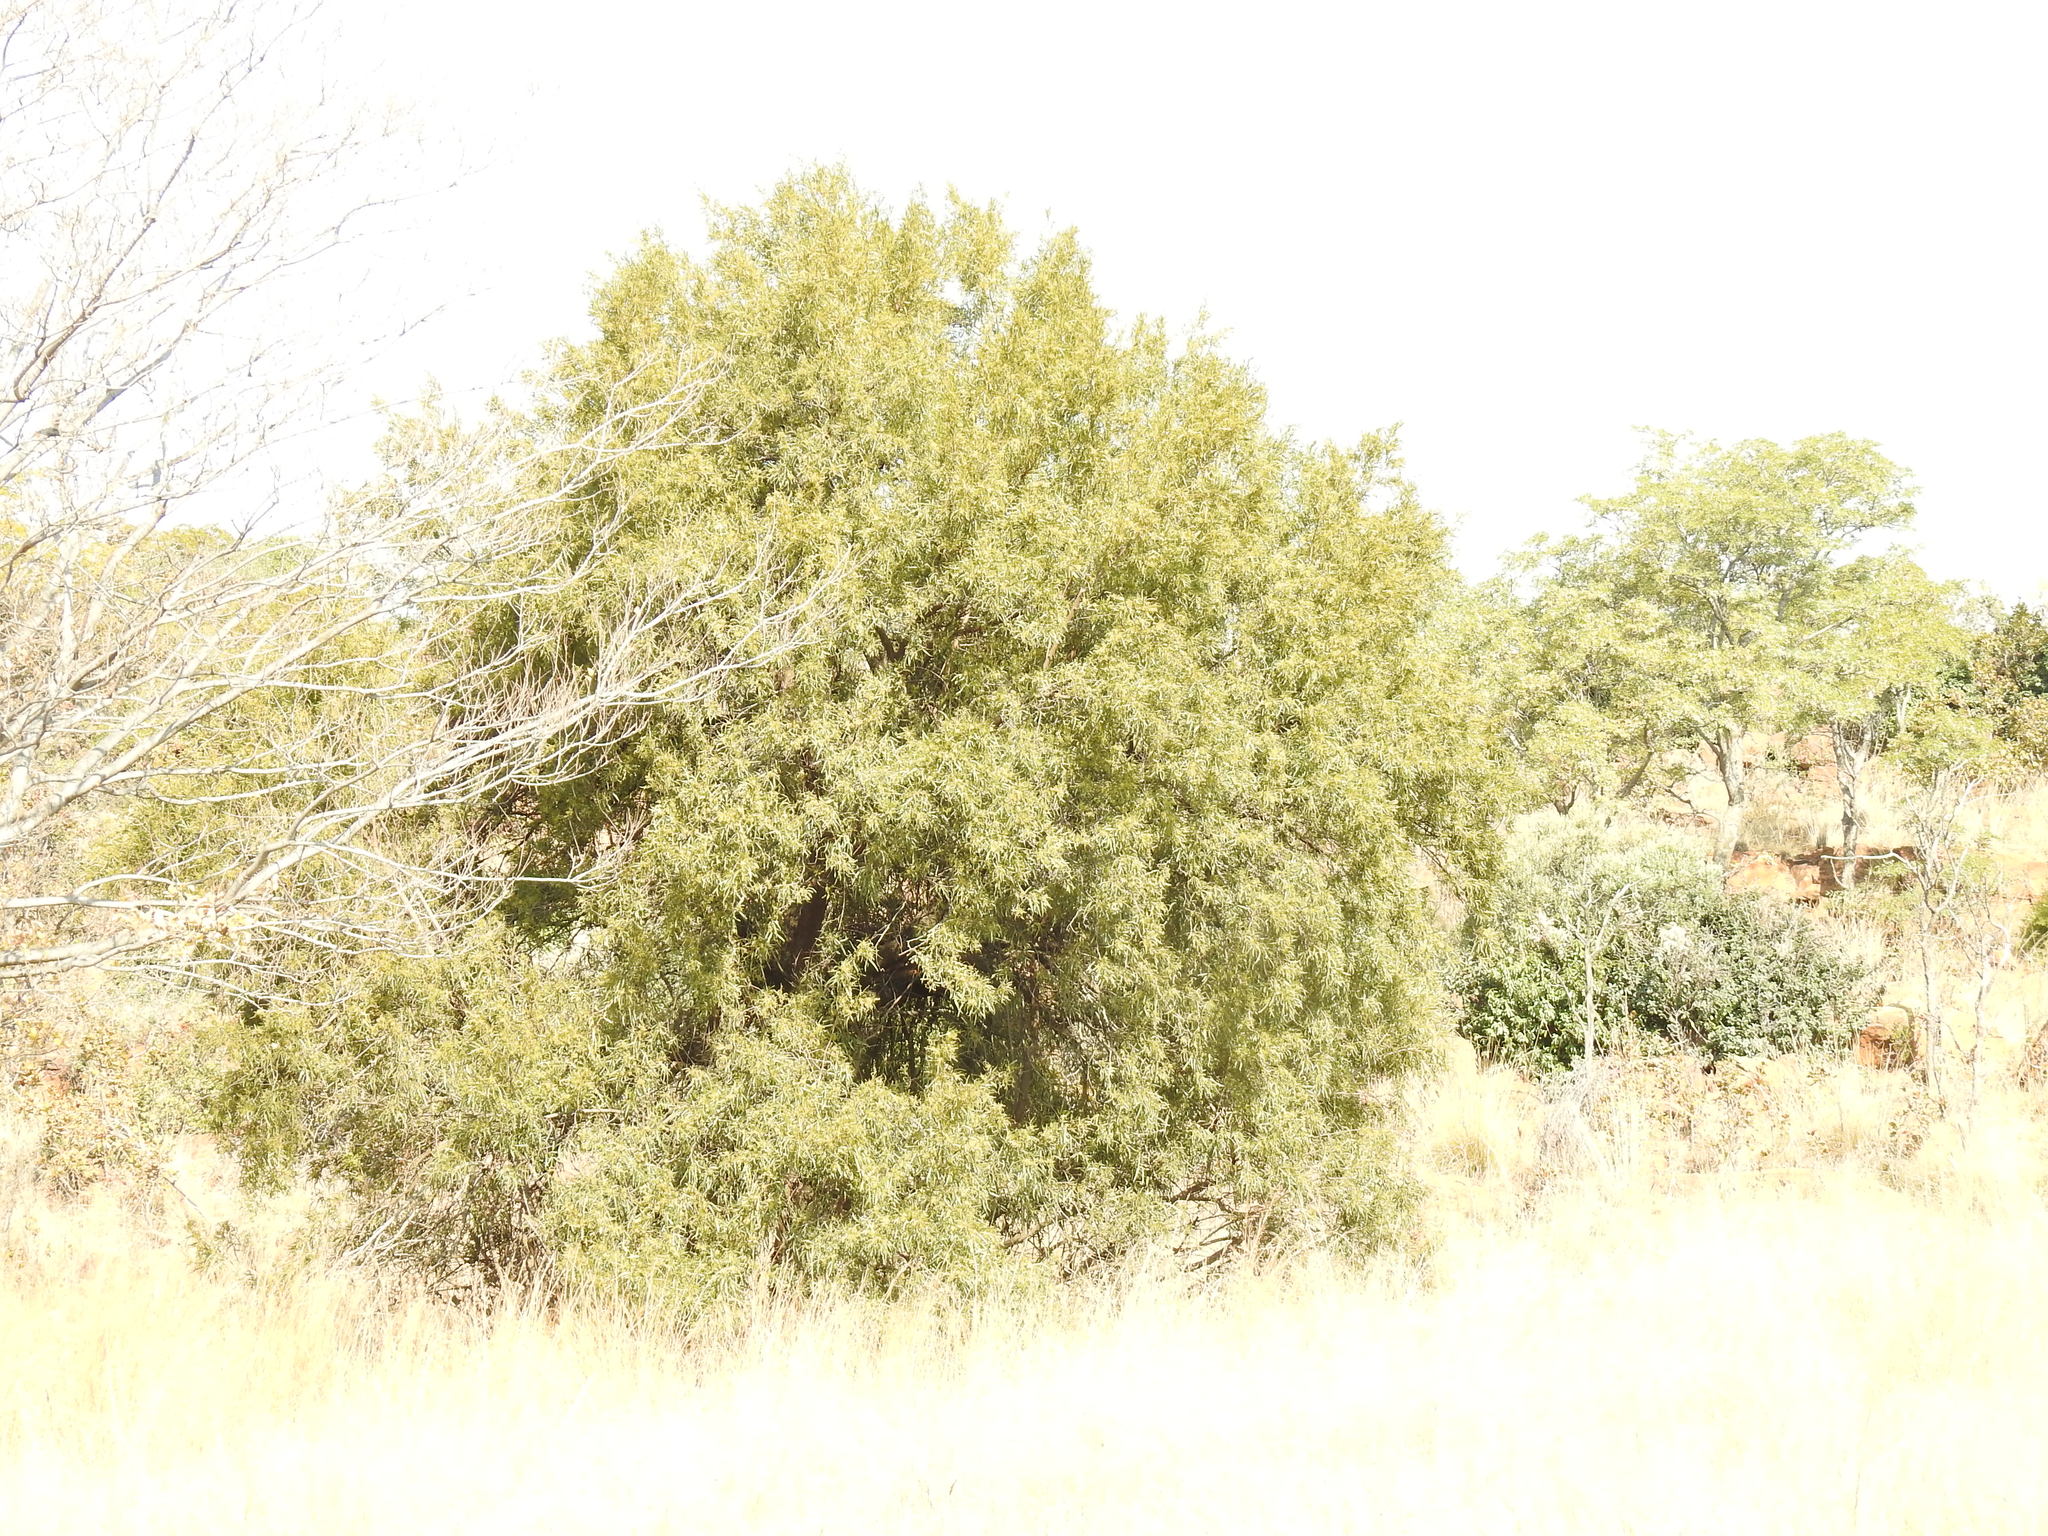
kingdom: Plantae
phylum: Tracheophyta
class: Magnoliopsida
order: Sapindales
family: Anacardiaceae
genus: Searsia
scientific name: Searsia lancea
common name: Cashew
